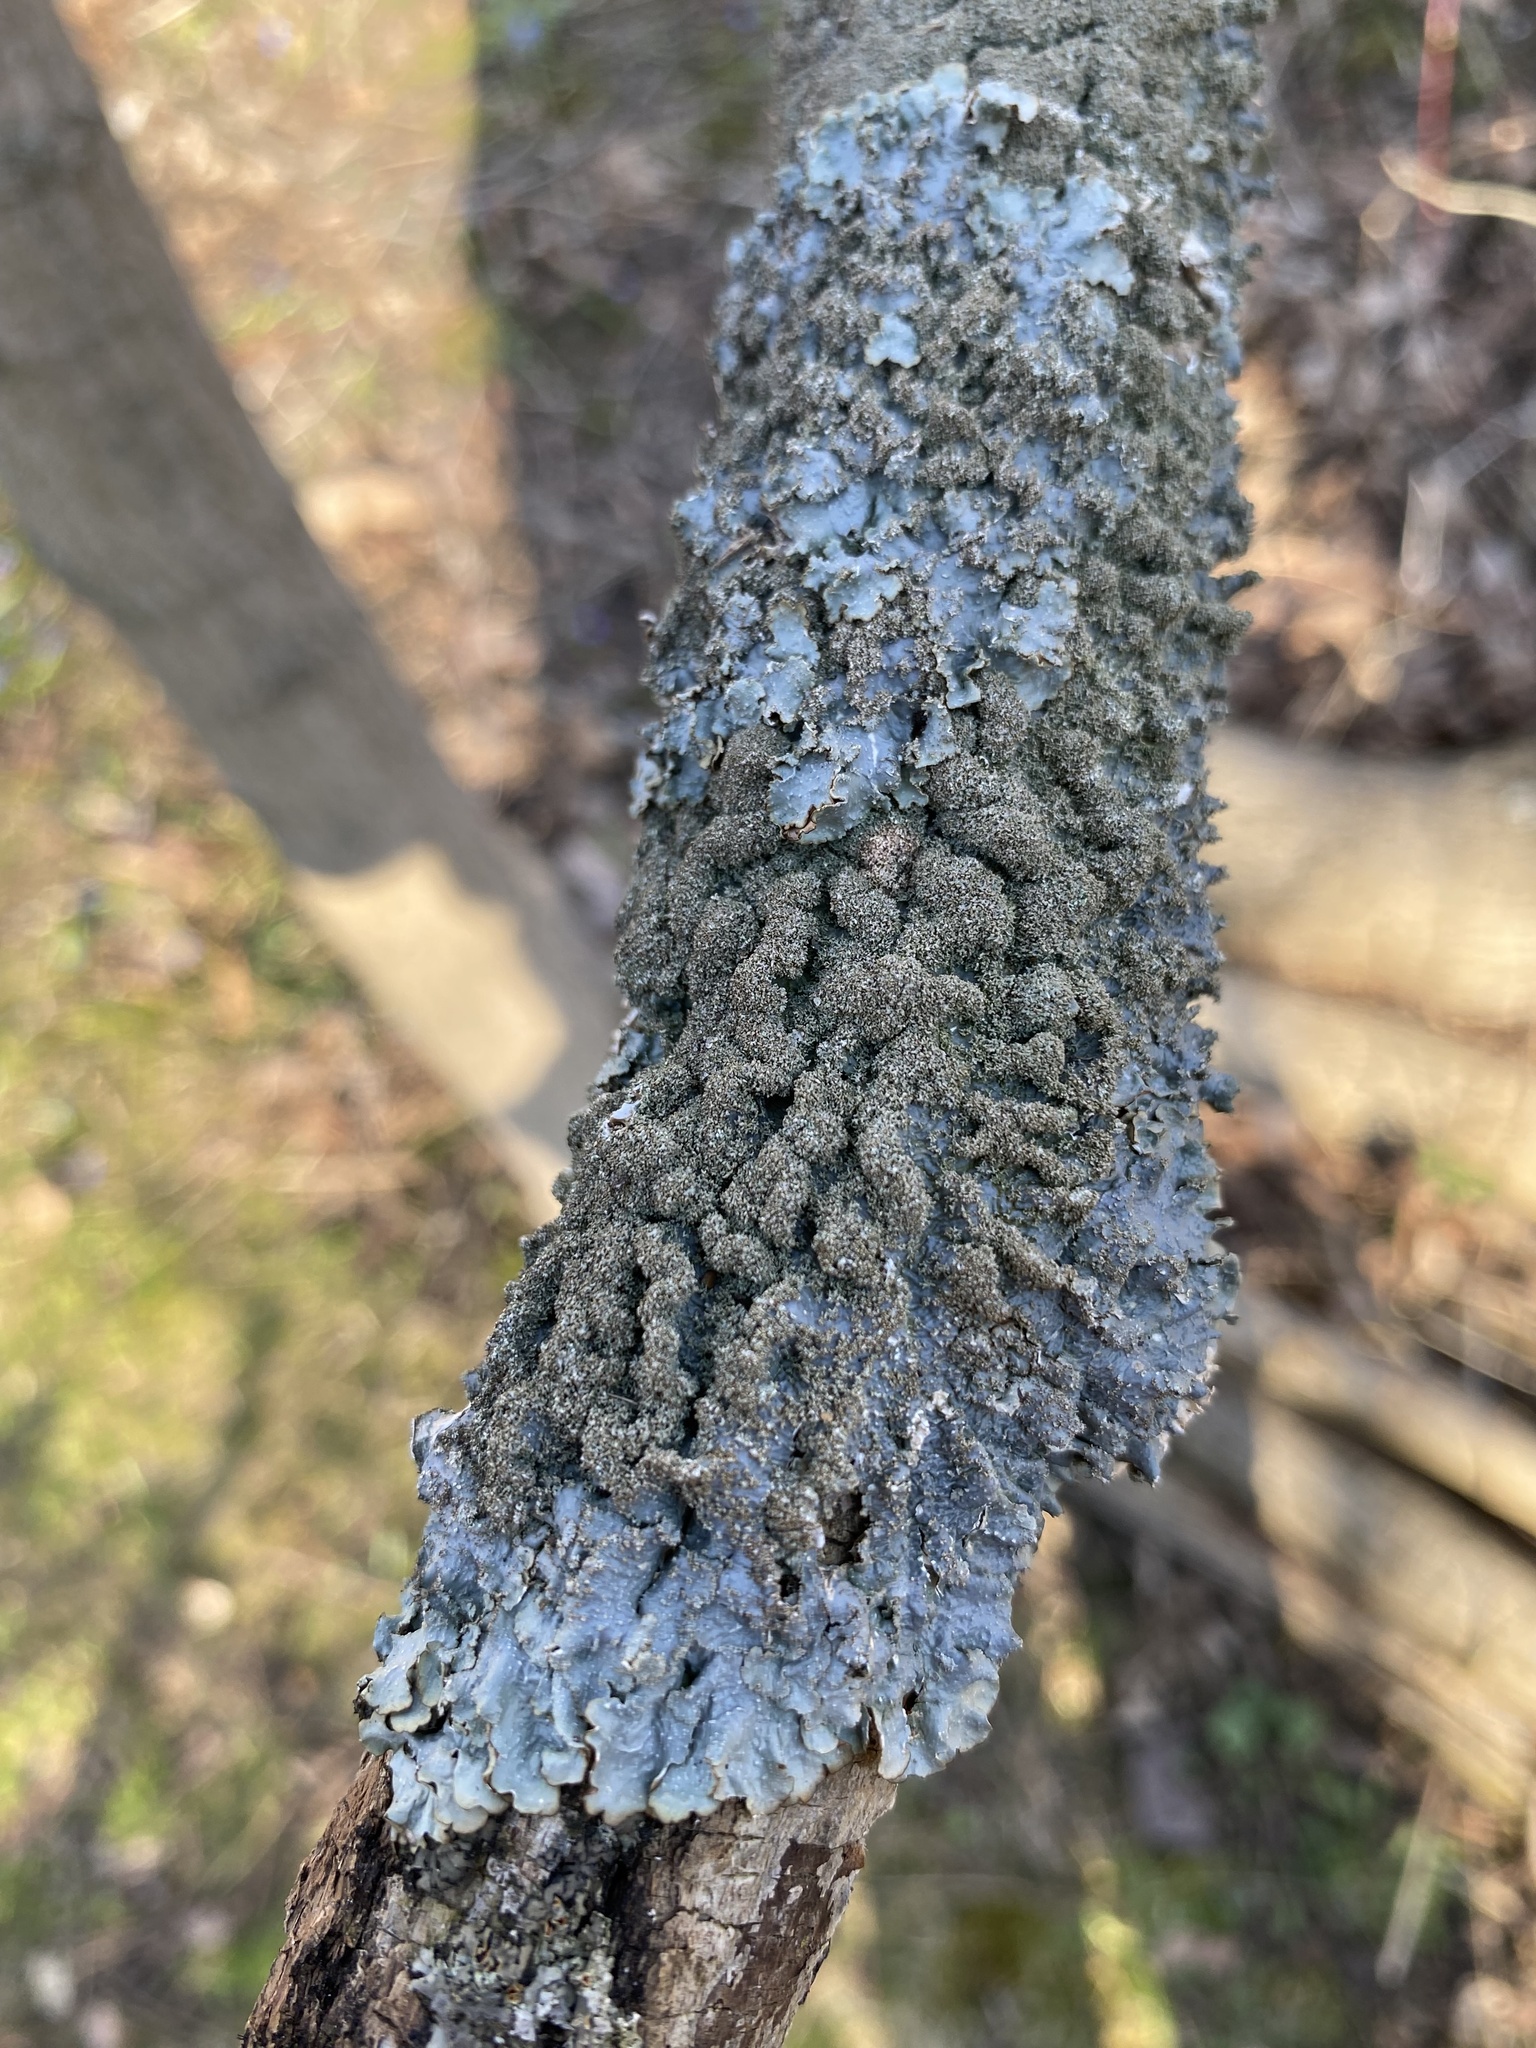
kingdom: Fungi
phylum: Ascomycota
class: Lecanoromycetes
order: Lecanorales
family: Parmeliaceae
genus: Punctelia
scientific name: Punctelia rudecta
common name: Rough speckled shield lichen
